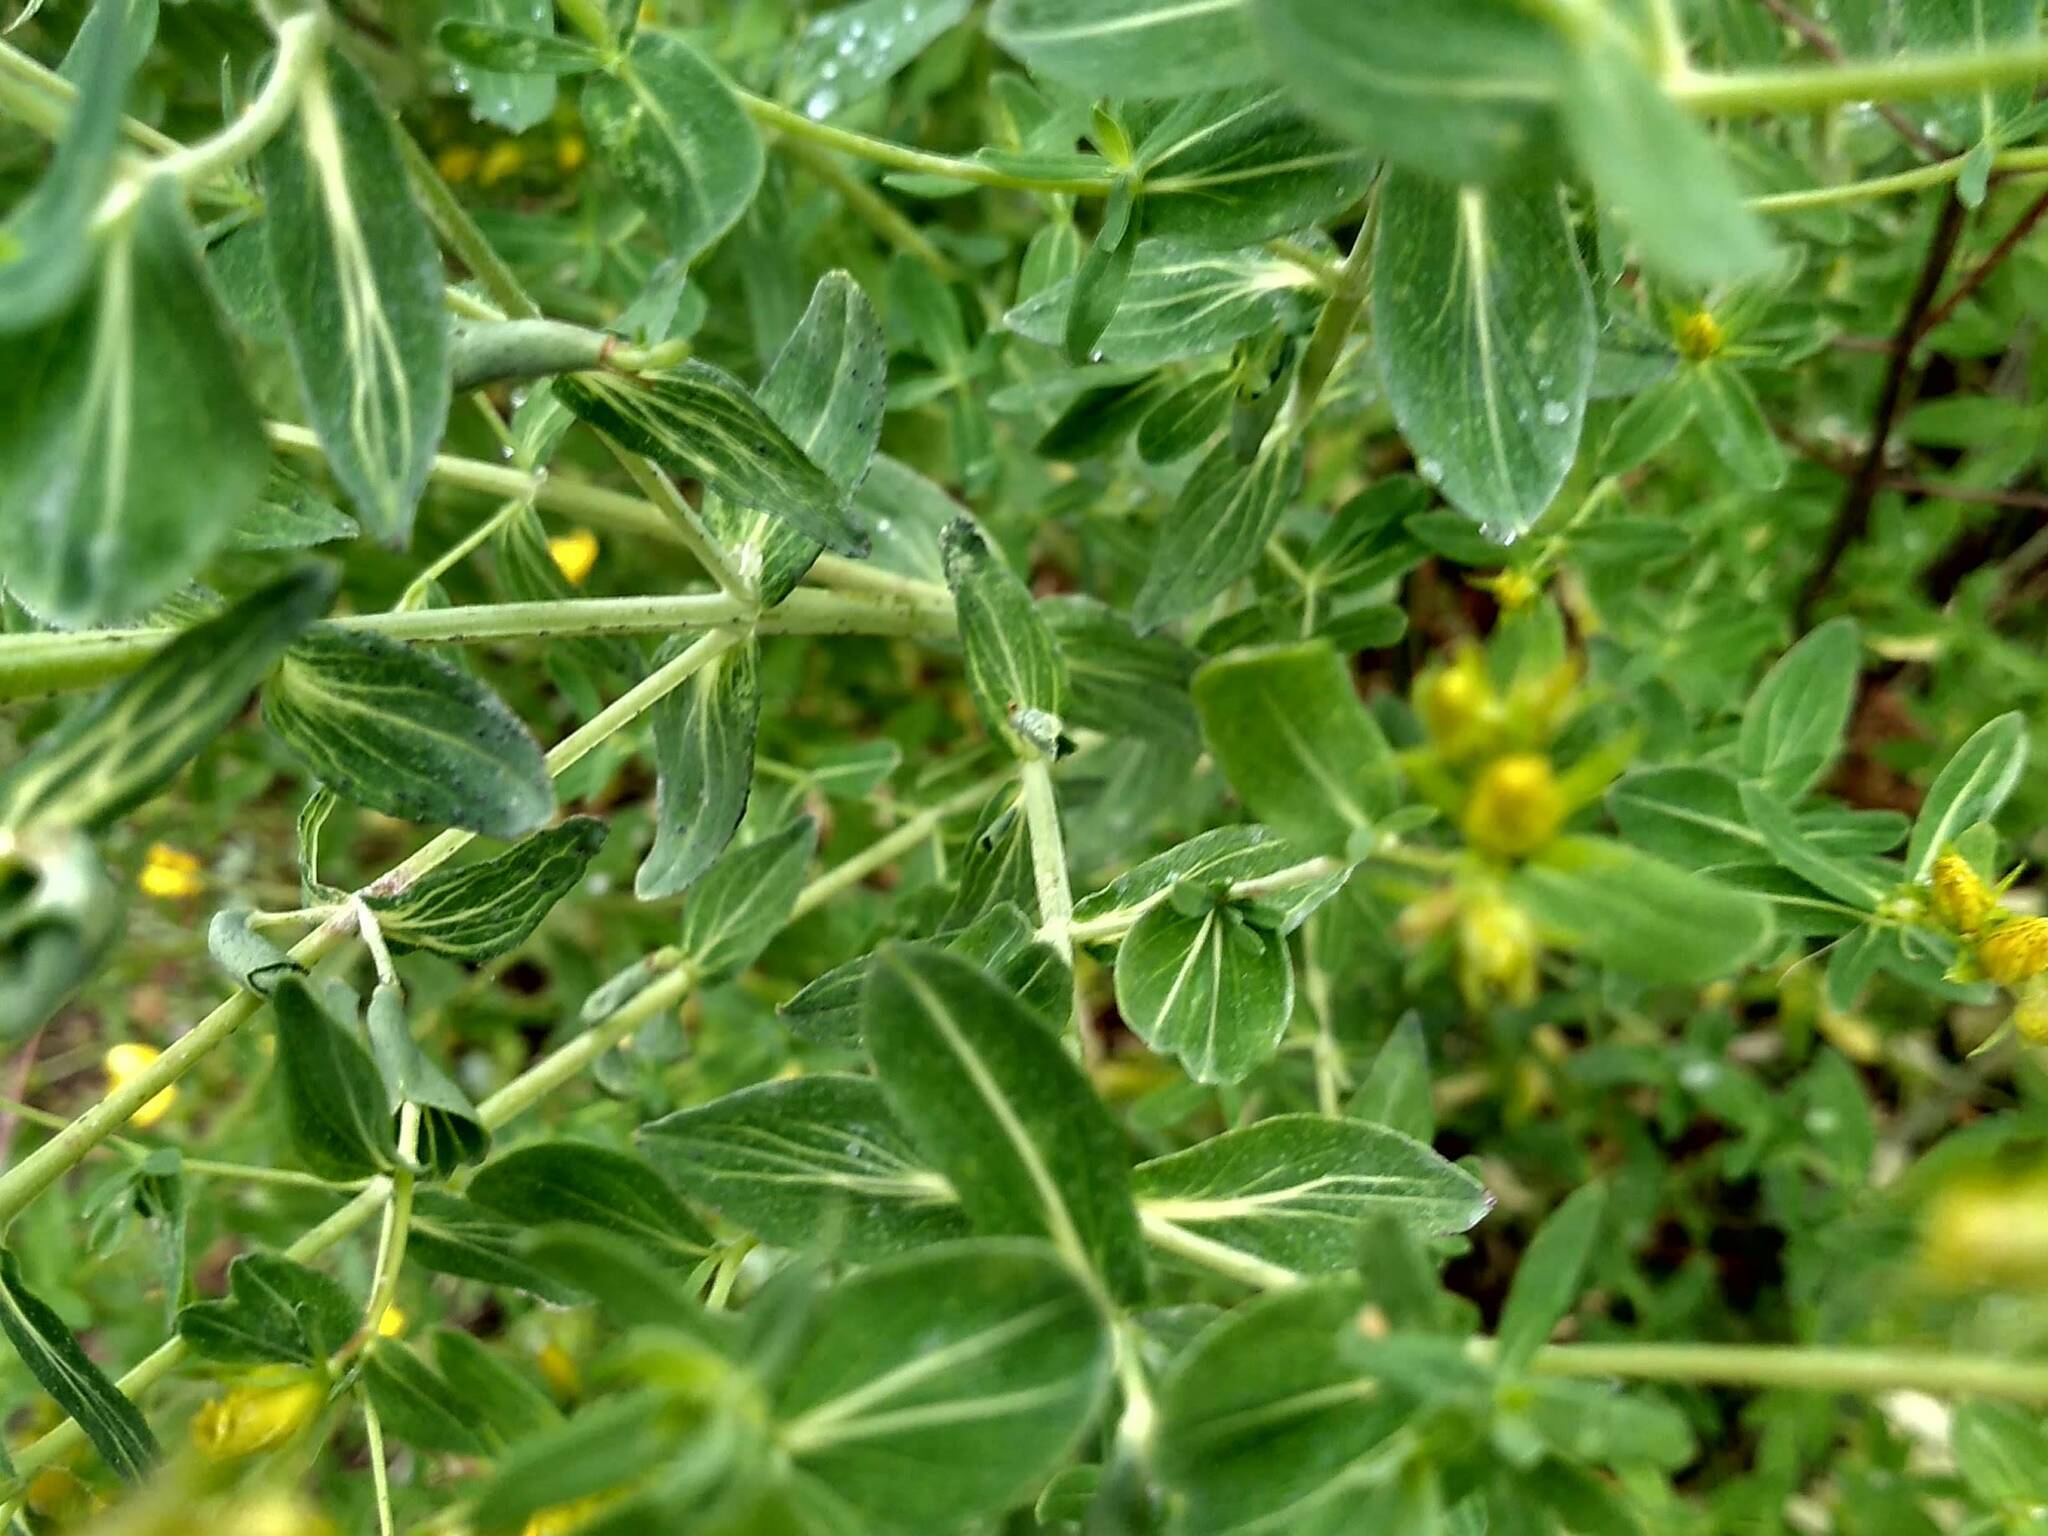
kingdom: Plantae
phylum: Tracheophyta
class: Magnoliopsida
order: Malpighiales
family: Hypericaceae
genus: Hypericum
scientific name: Hypericum perforatum
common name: Common st. johnswort
